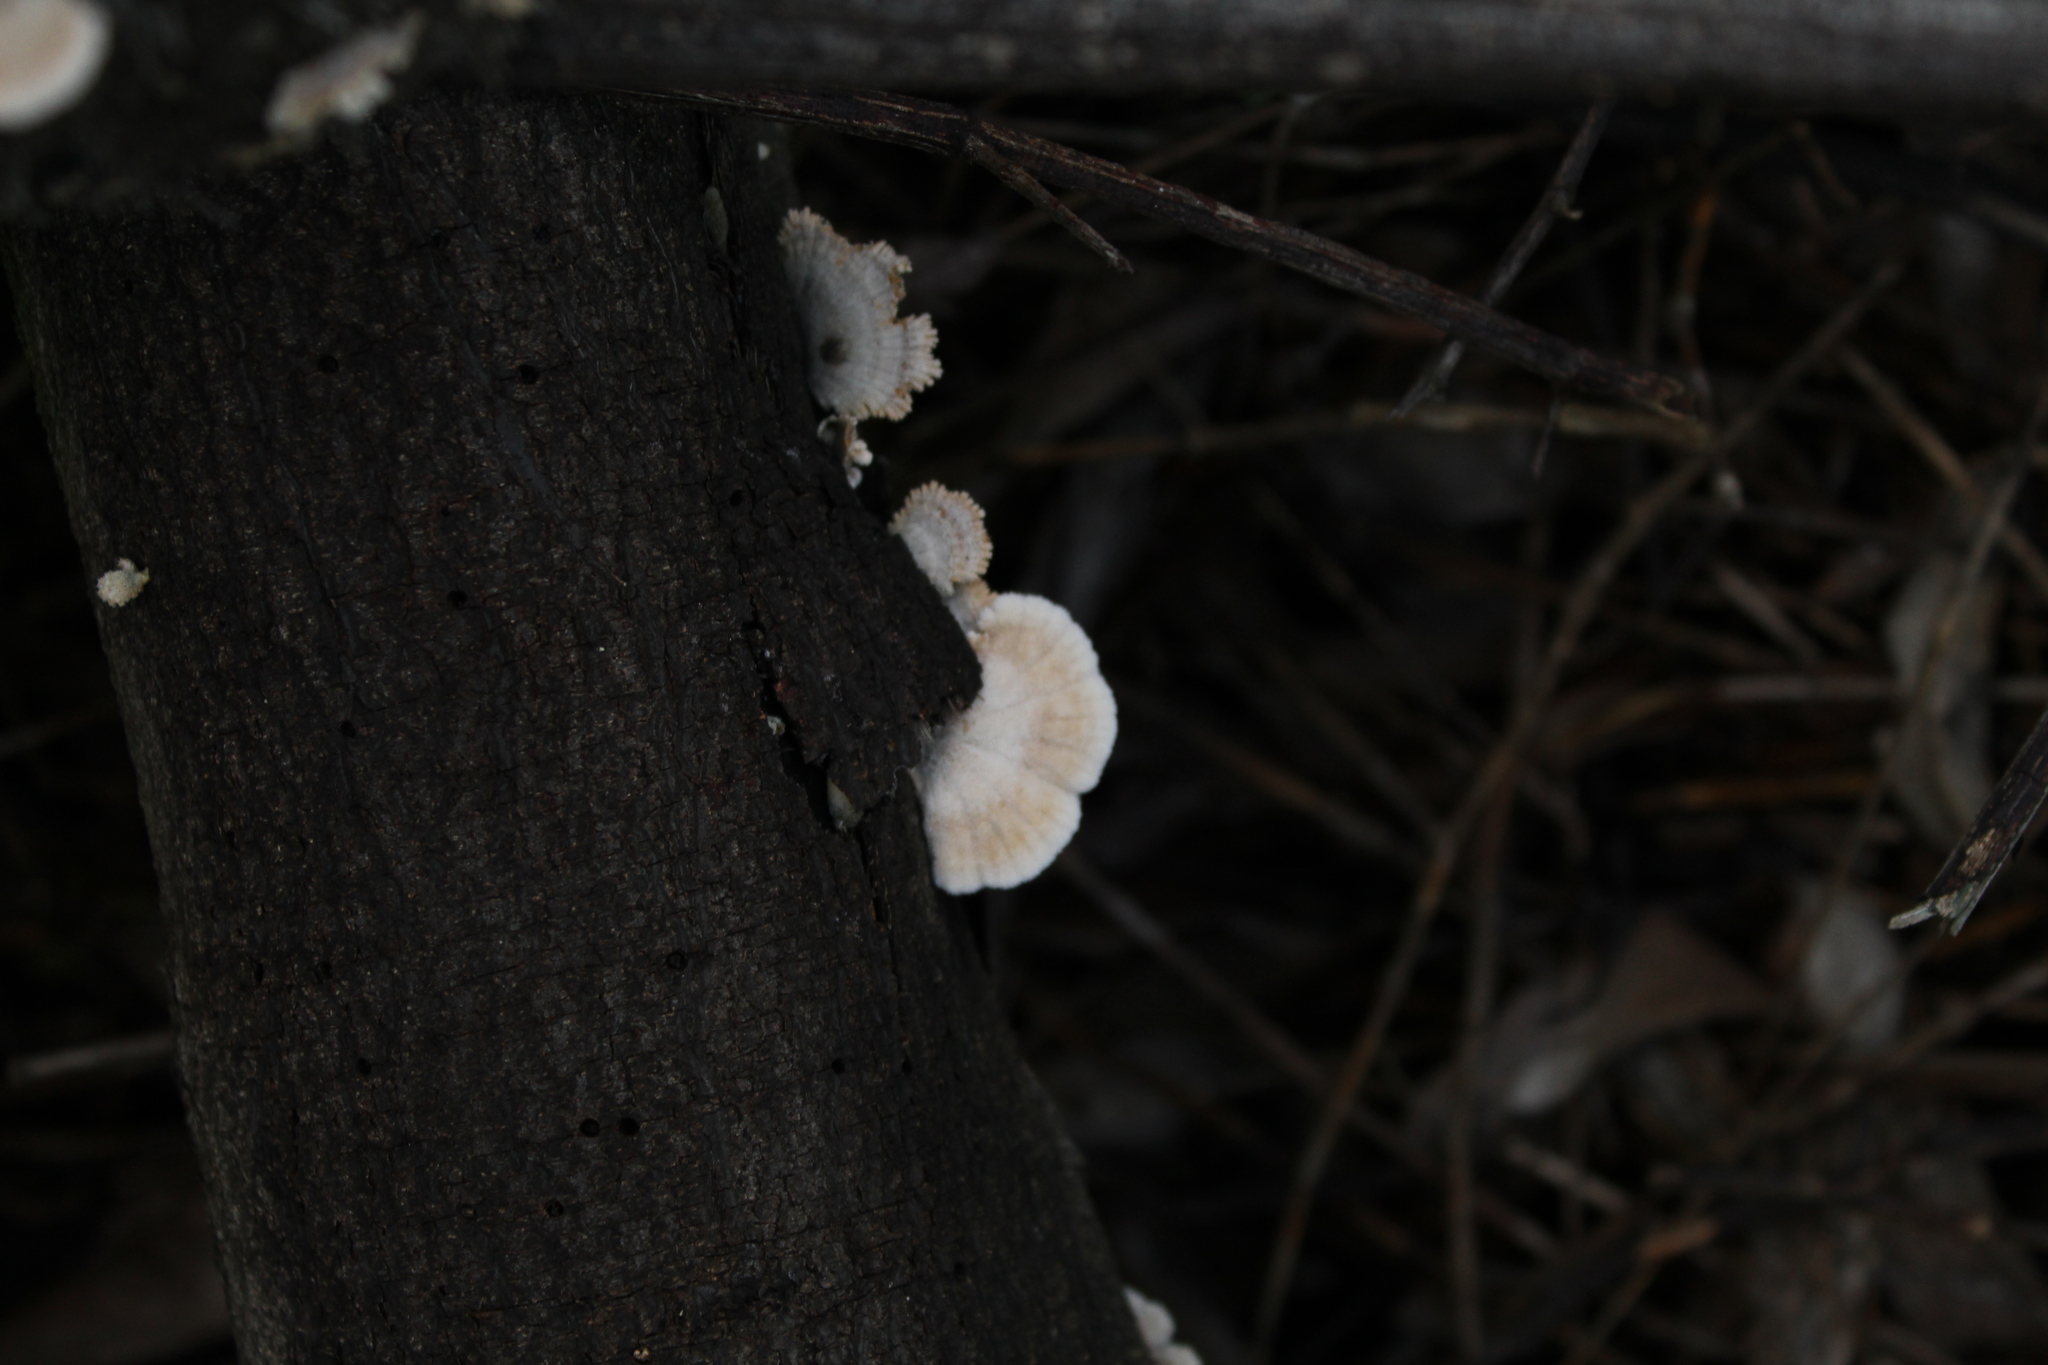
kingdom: Fungi
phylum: Basidiomycota
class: Agaricomycetes
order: Agaricales
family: Schizophyllaceae
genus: Schizophyllum
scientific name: Schizophyllum commune
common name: Common porecrust
